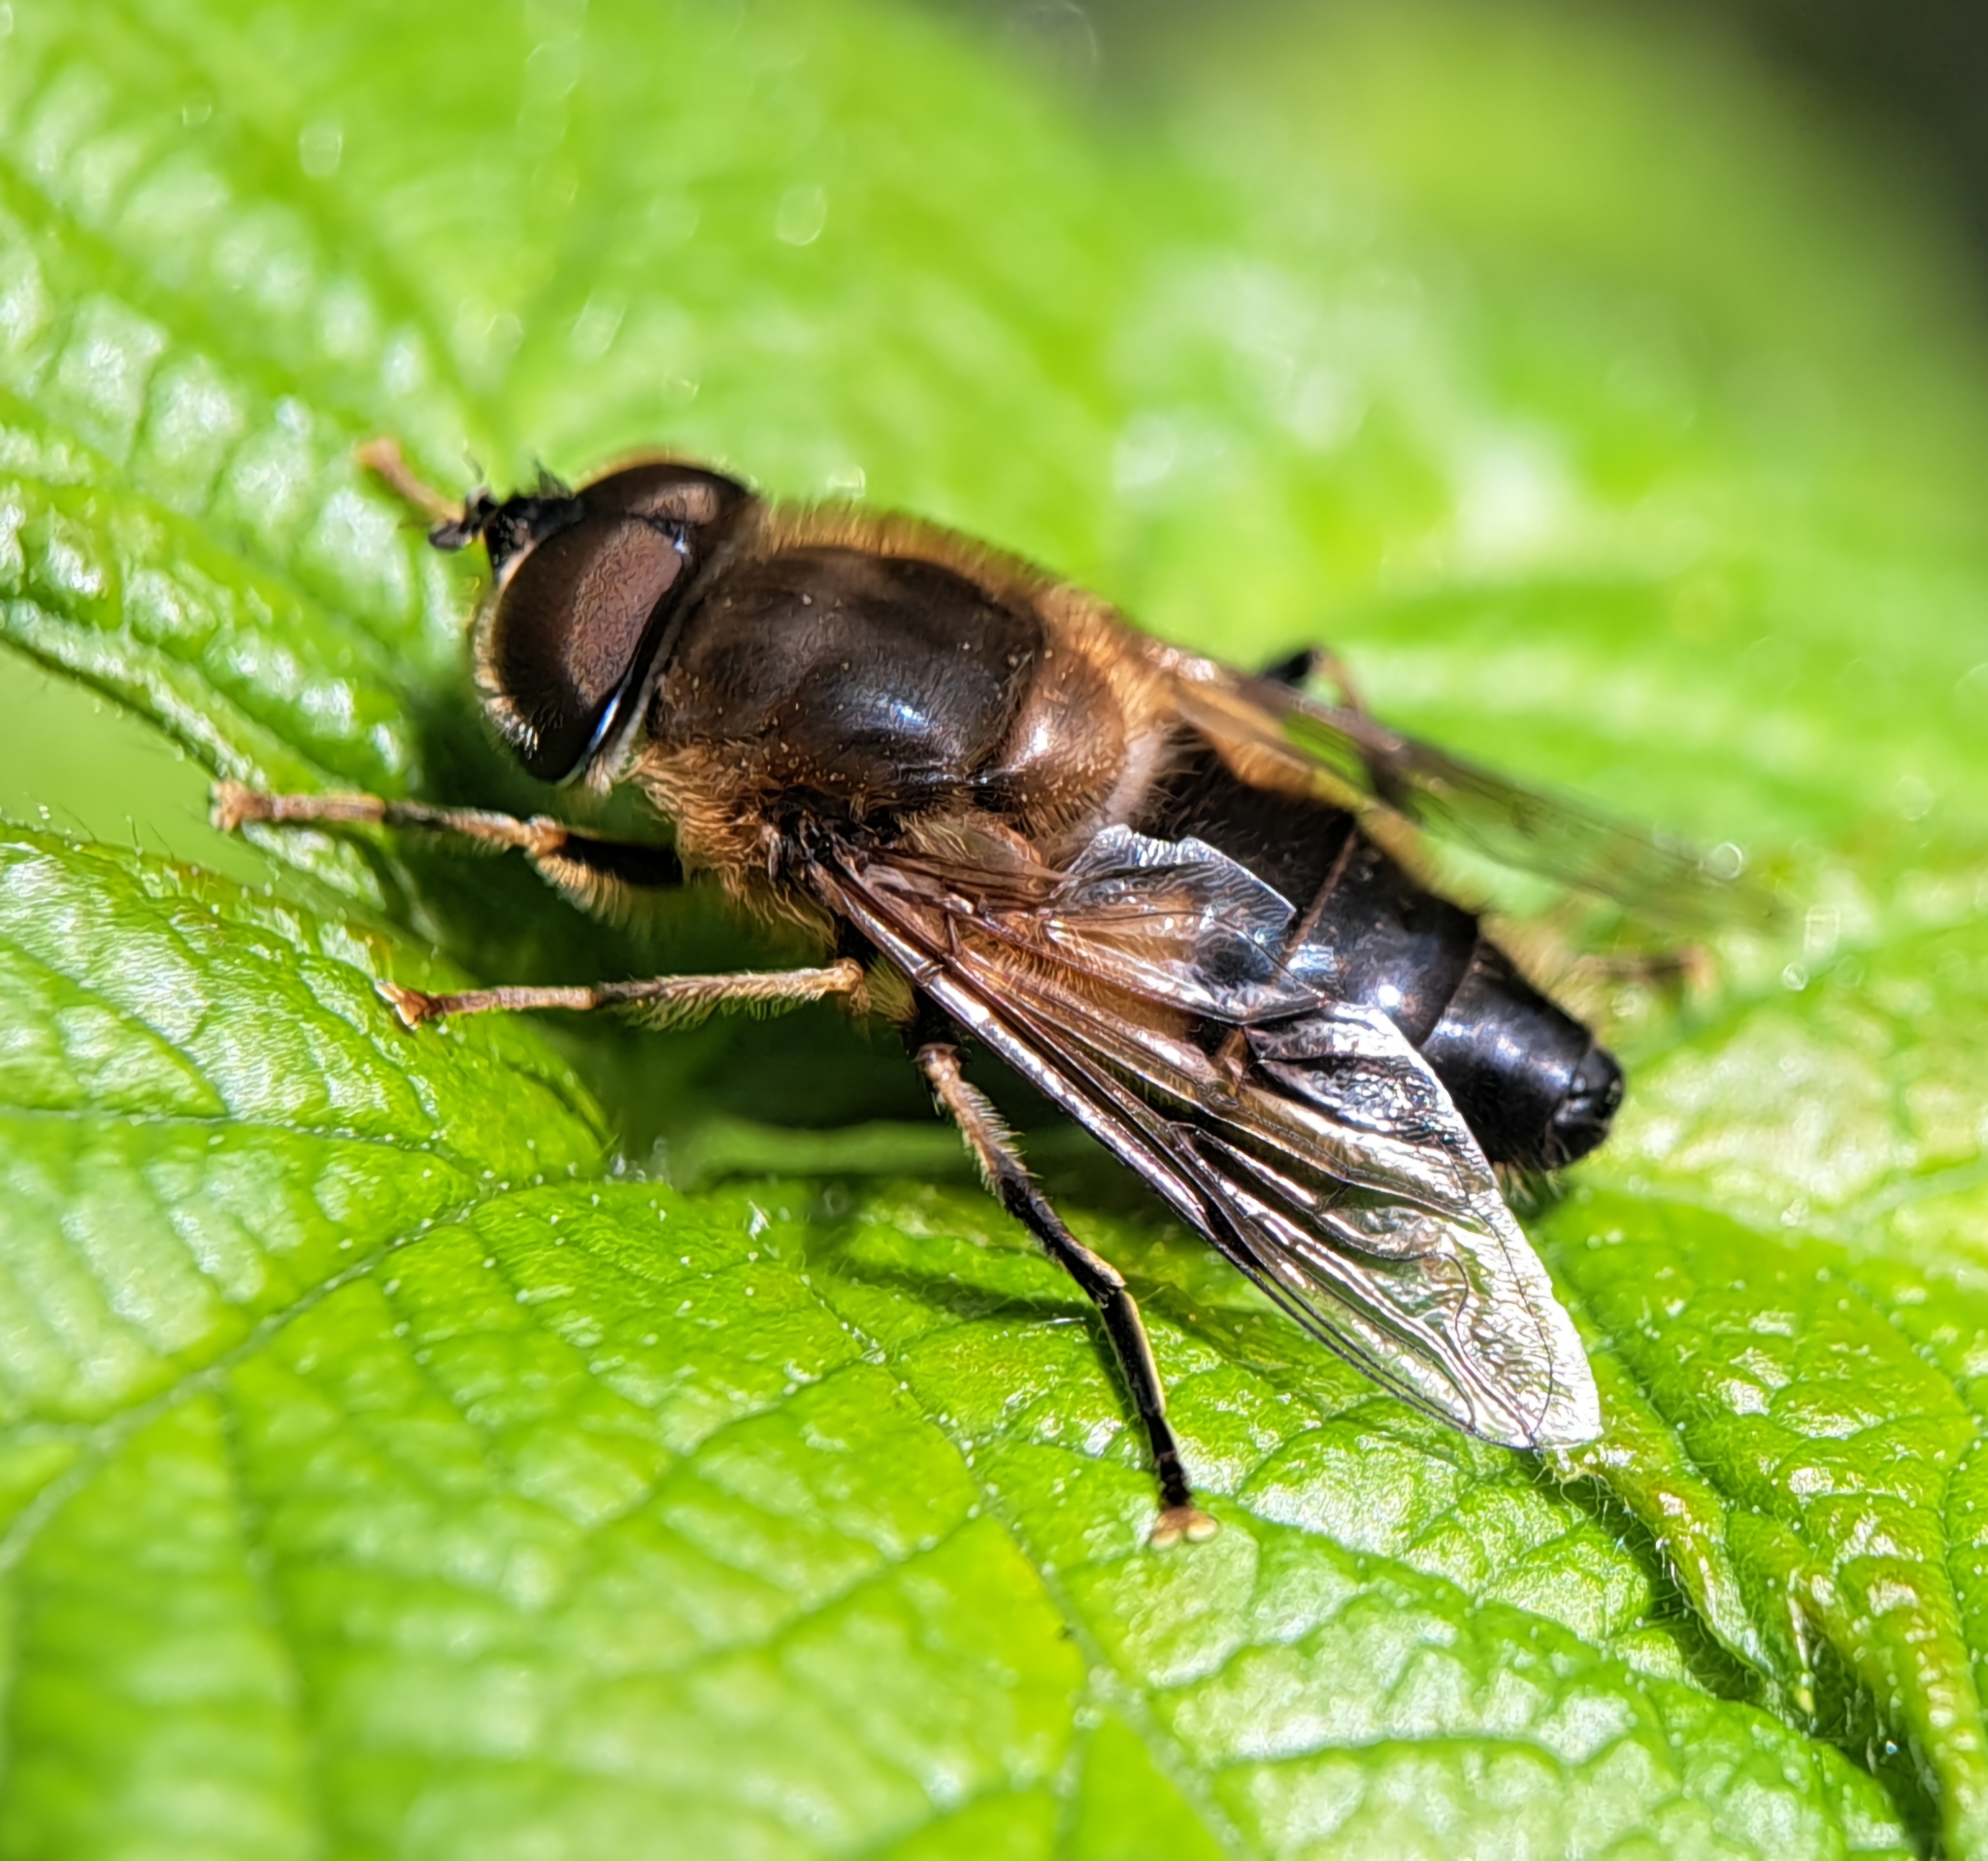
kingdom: Animalia
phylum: Arthropoda
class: Insecta
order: Diptera
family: Syrphidae
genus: Eristalis
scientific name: Eristalis pertinax
